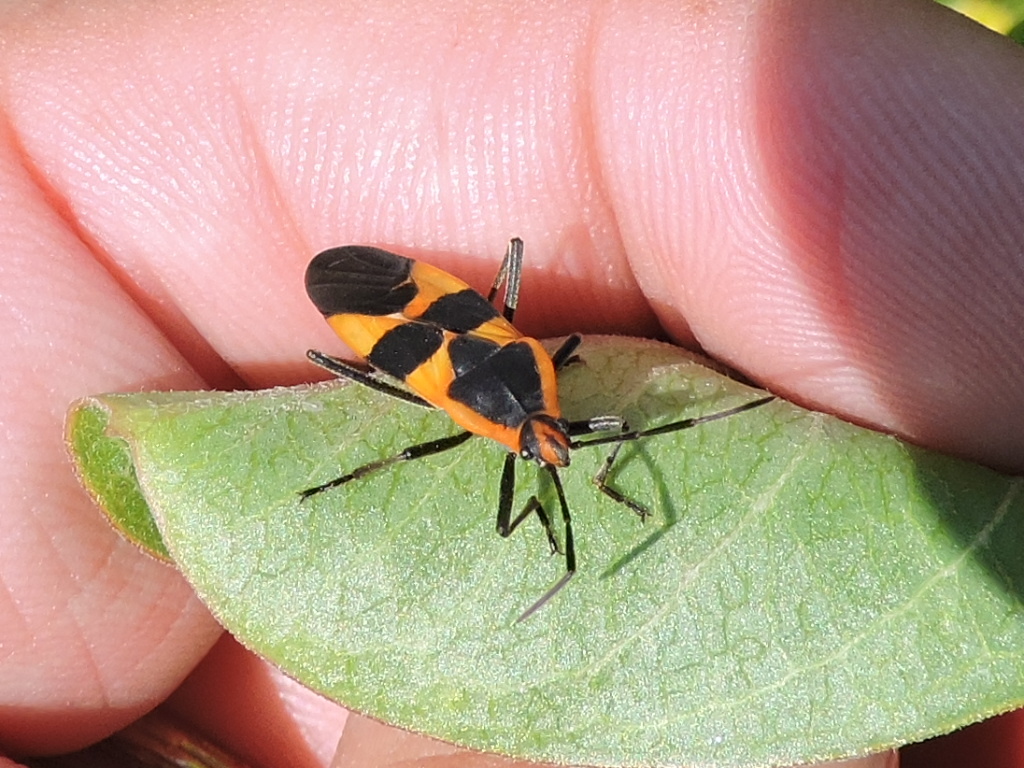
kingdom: Animalia
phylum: Arthropoda
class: Insecta
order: Hemiptera
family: Lygaeidae
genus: Oncopeltus
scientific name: Oncopeltus fasciatus
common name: Large milkweed bug
